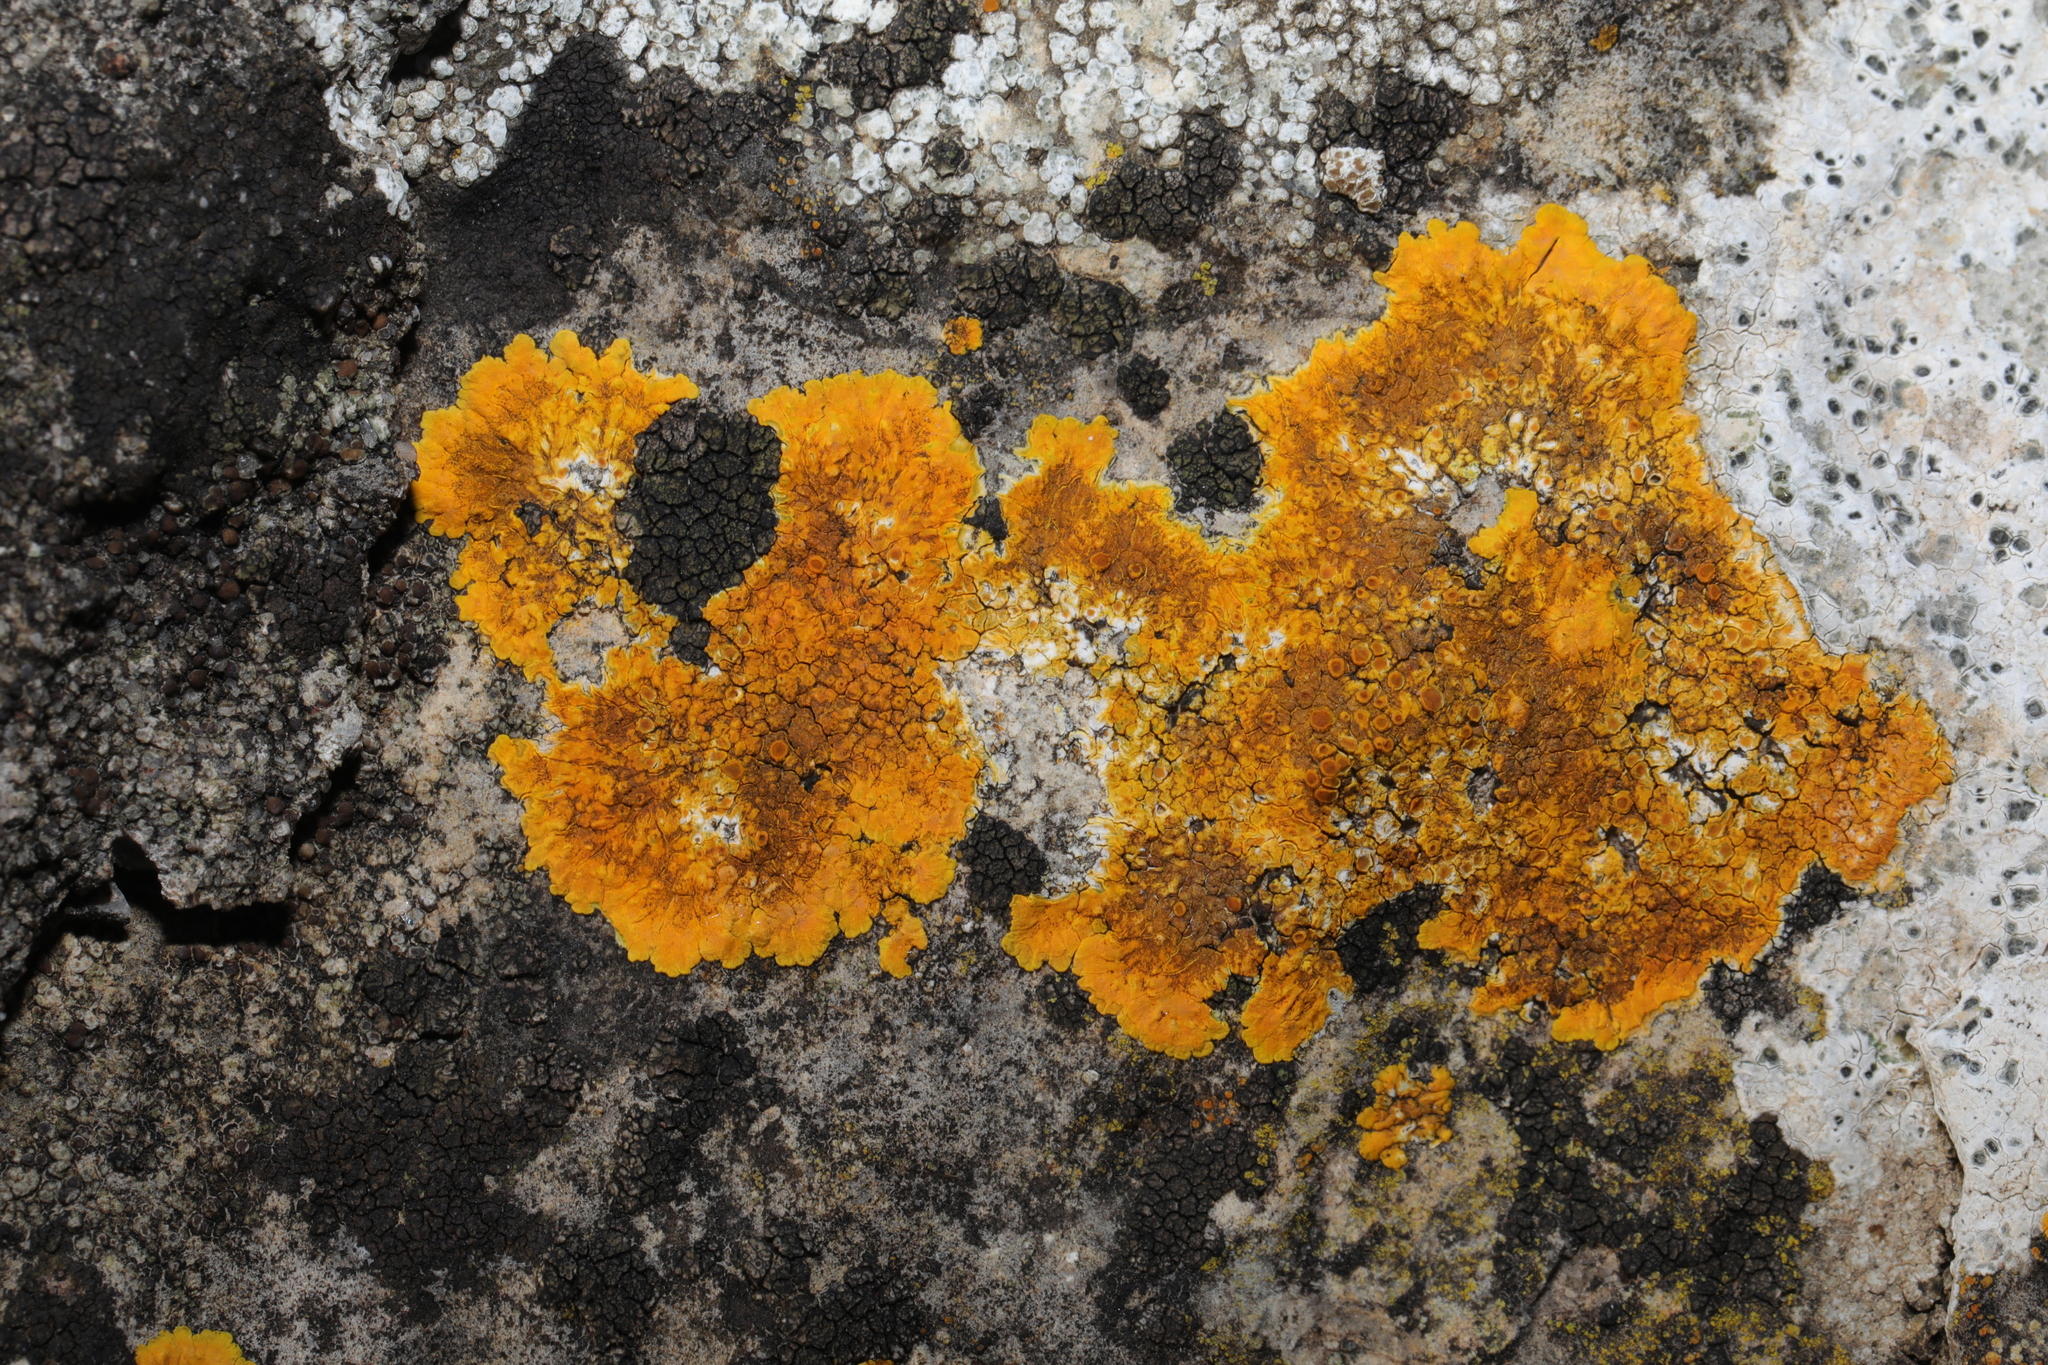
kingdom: Fungi
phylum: Ascomycota
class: Lecanoromycetes
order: Teloschistales
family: Teloschistaceae
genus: Variospora
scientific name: Variospora aurantia
